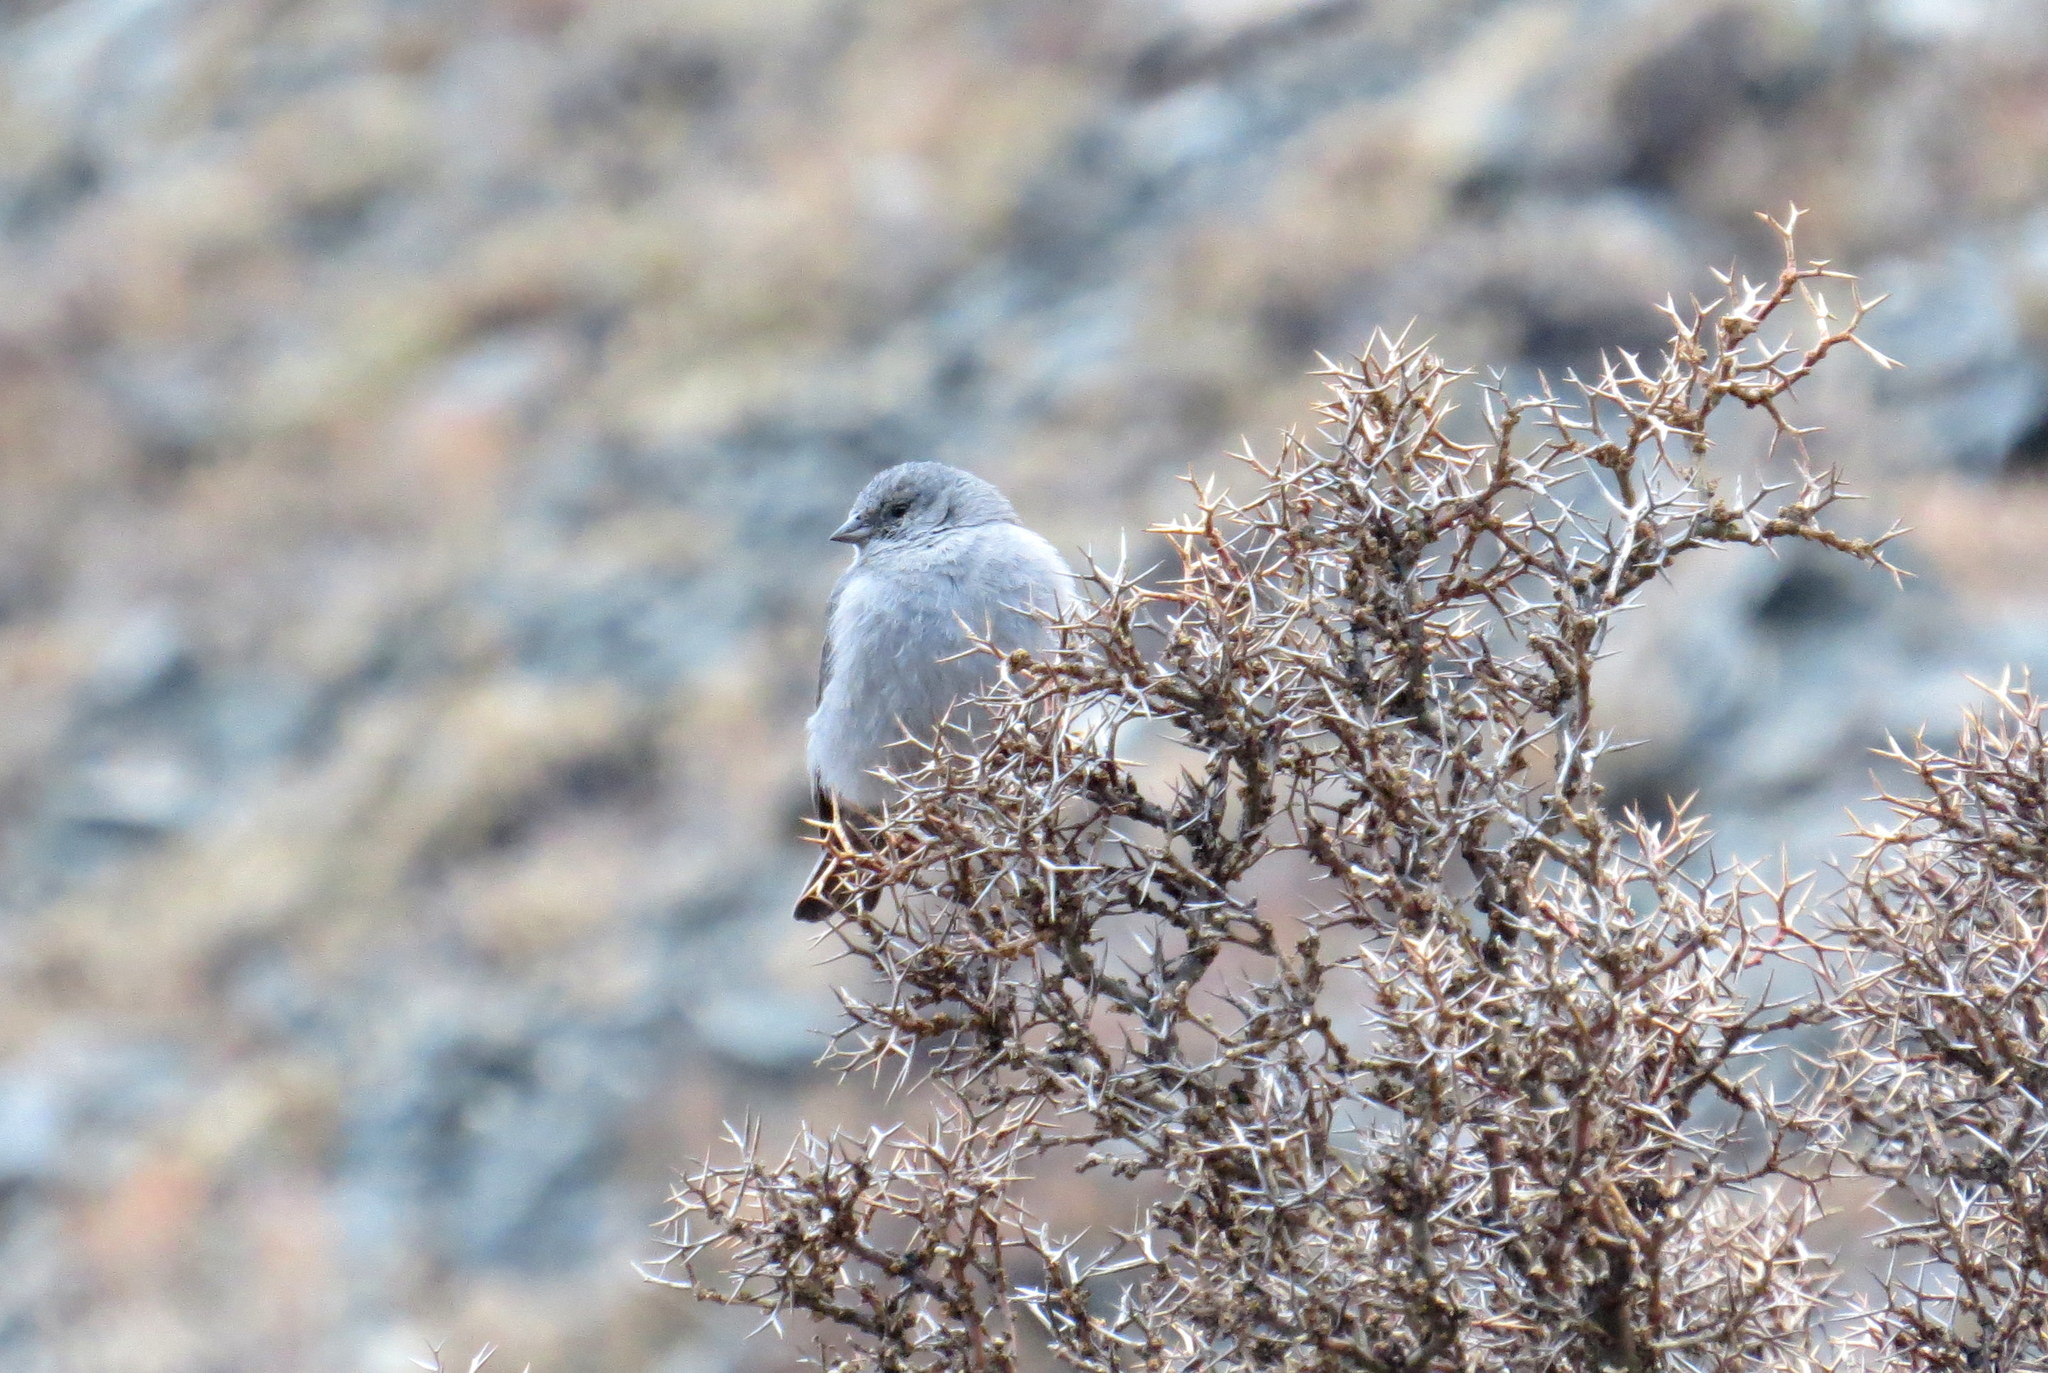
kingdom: Animalia
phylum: Chordata
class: Aves
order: Passeriformes
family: Thraupidae
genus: Geospizopsis
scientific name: Geospizopsis unicolor
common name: Plumbeous sierra-finch
